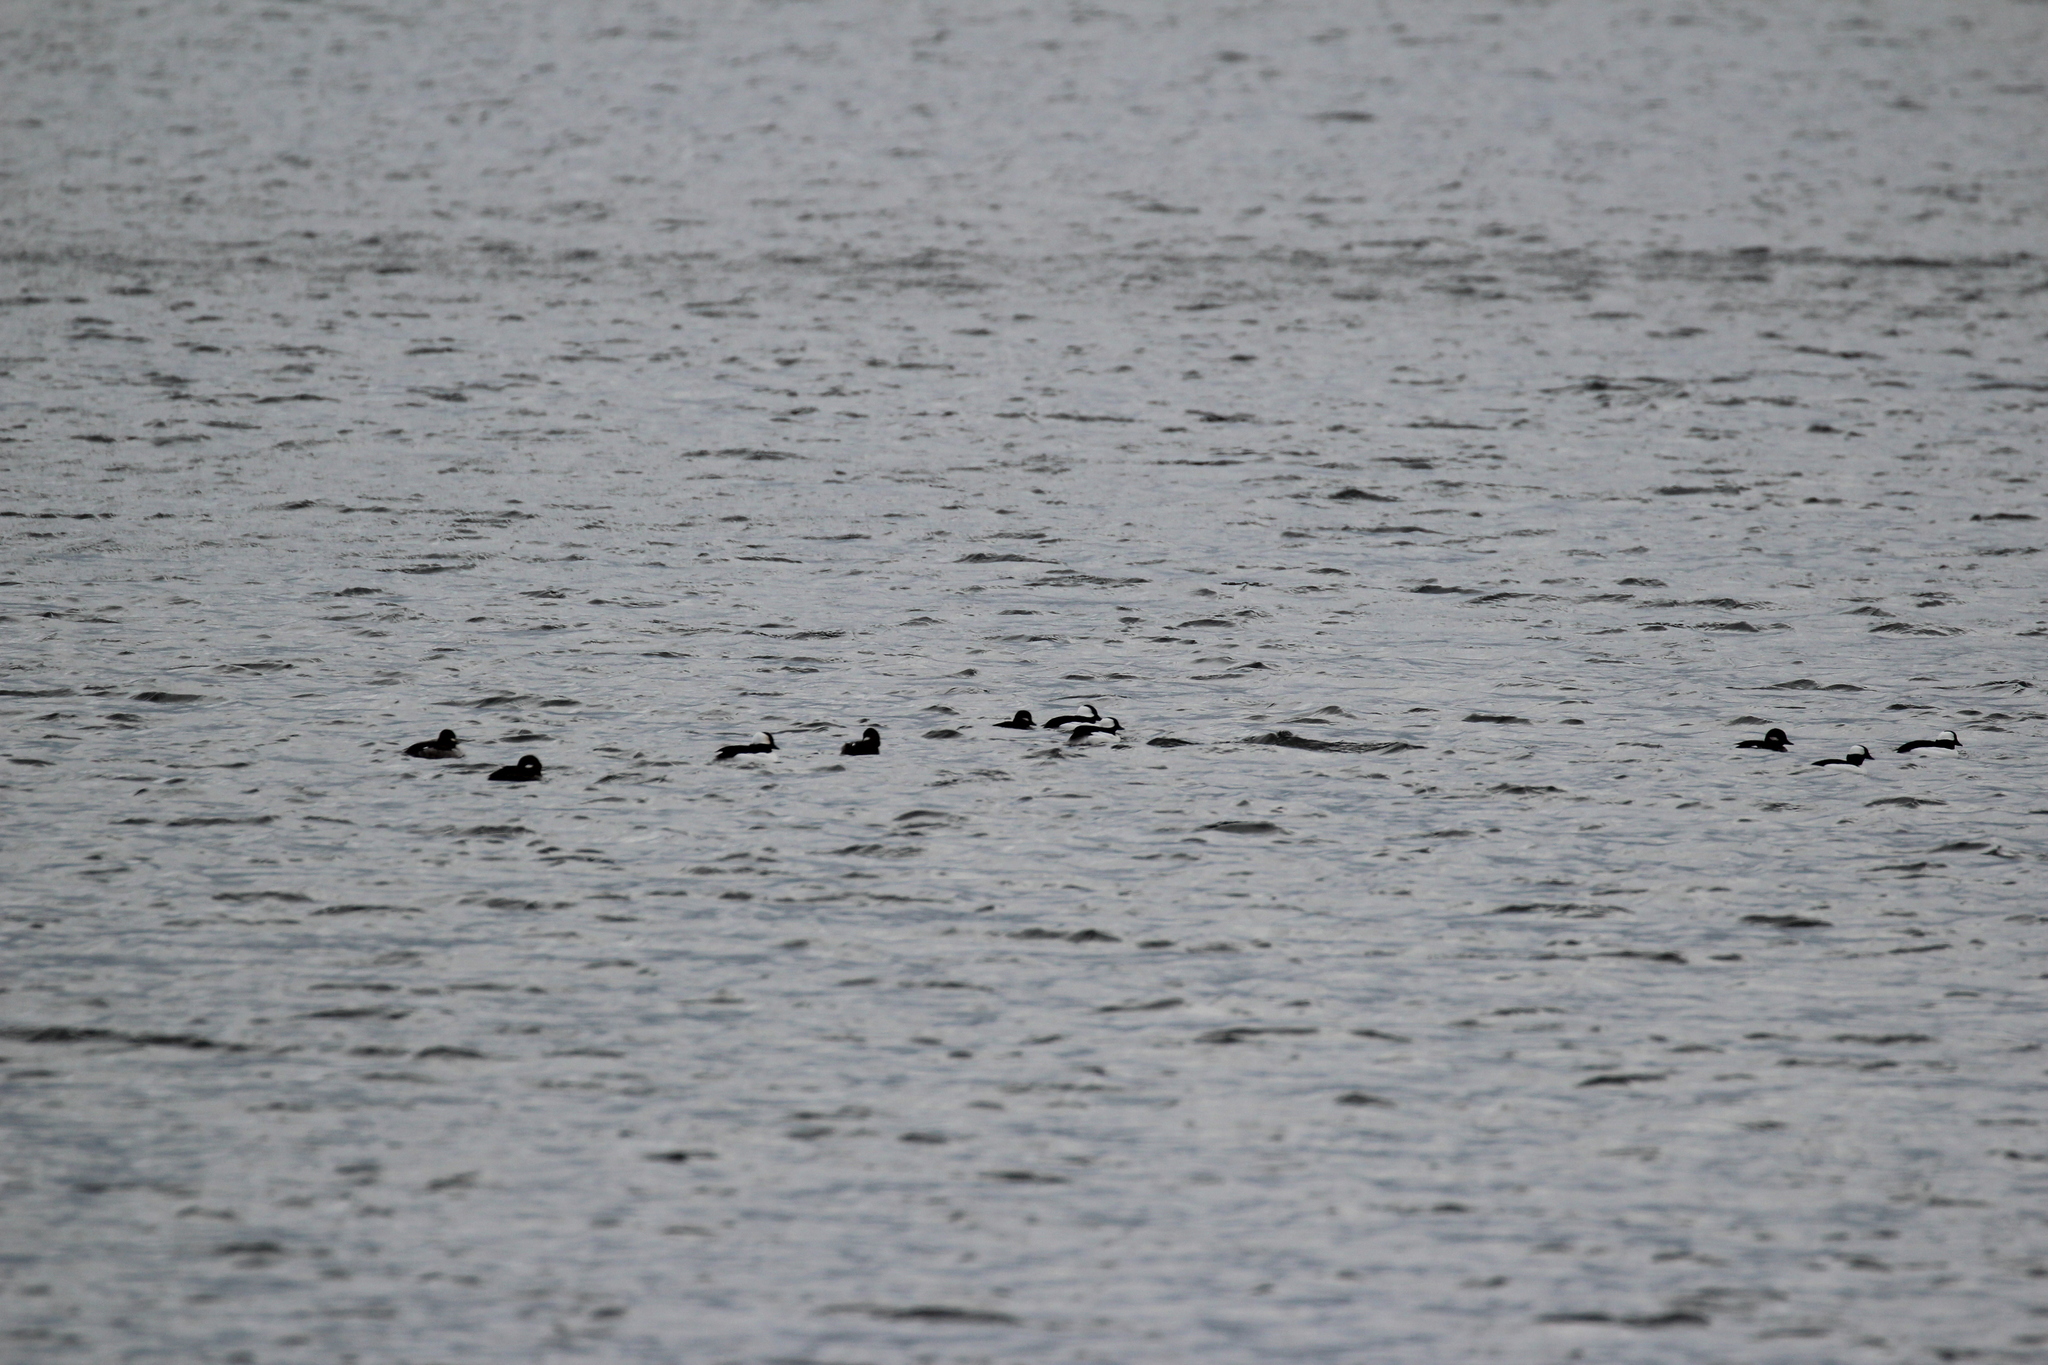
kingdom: Animalia
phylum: Chordata
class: Aves
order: Anseriformes
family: Anatidae
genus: Bucephala
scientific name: Bucephala albeola
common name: Bufflehead
